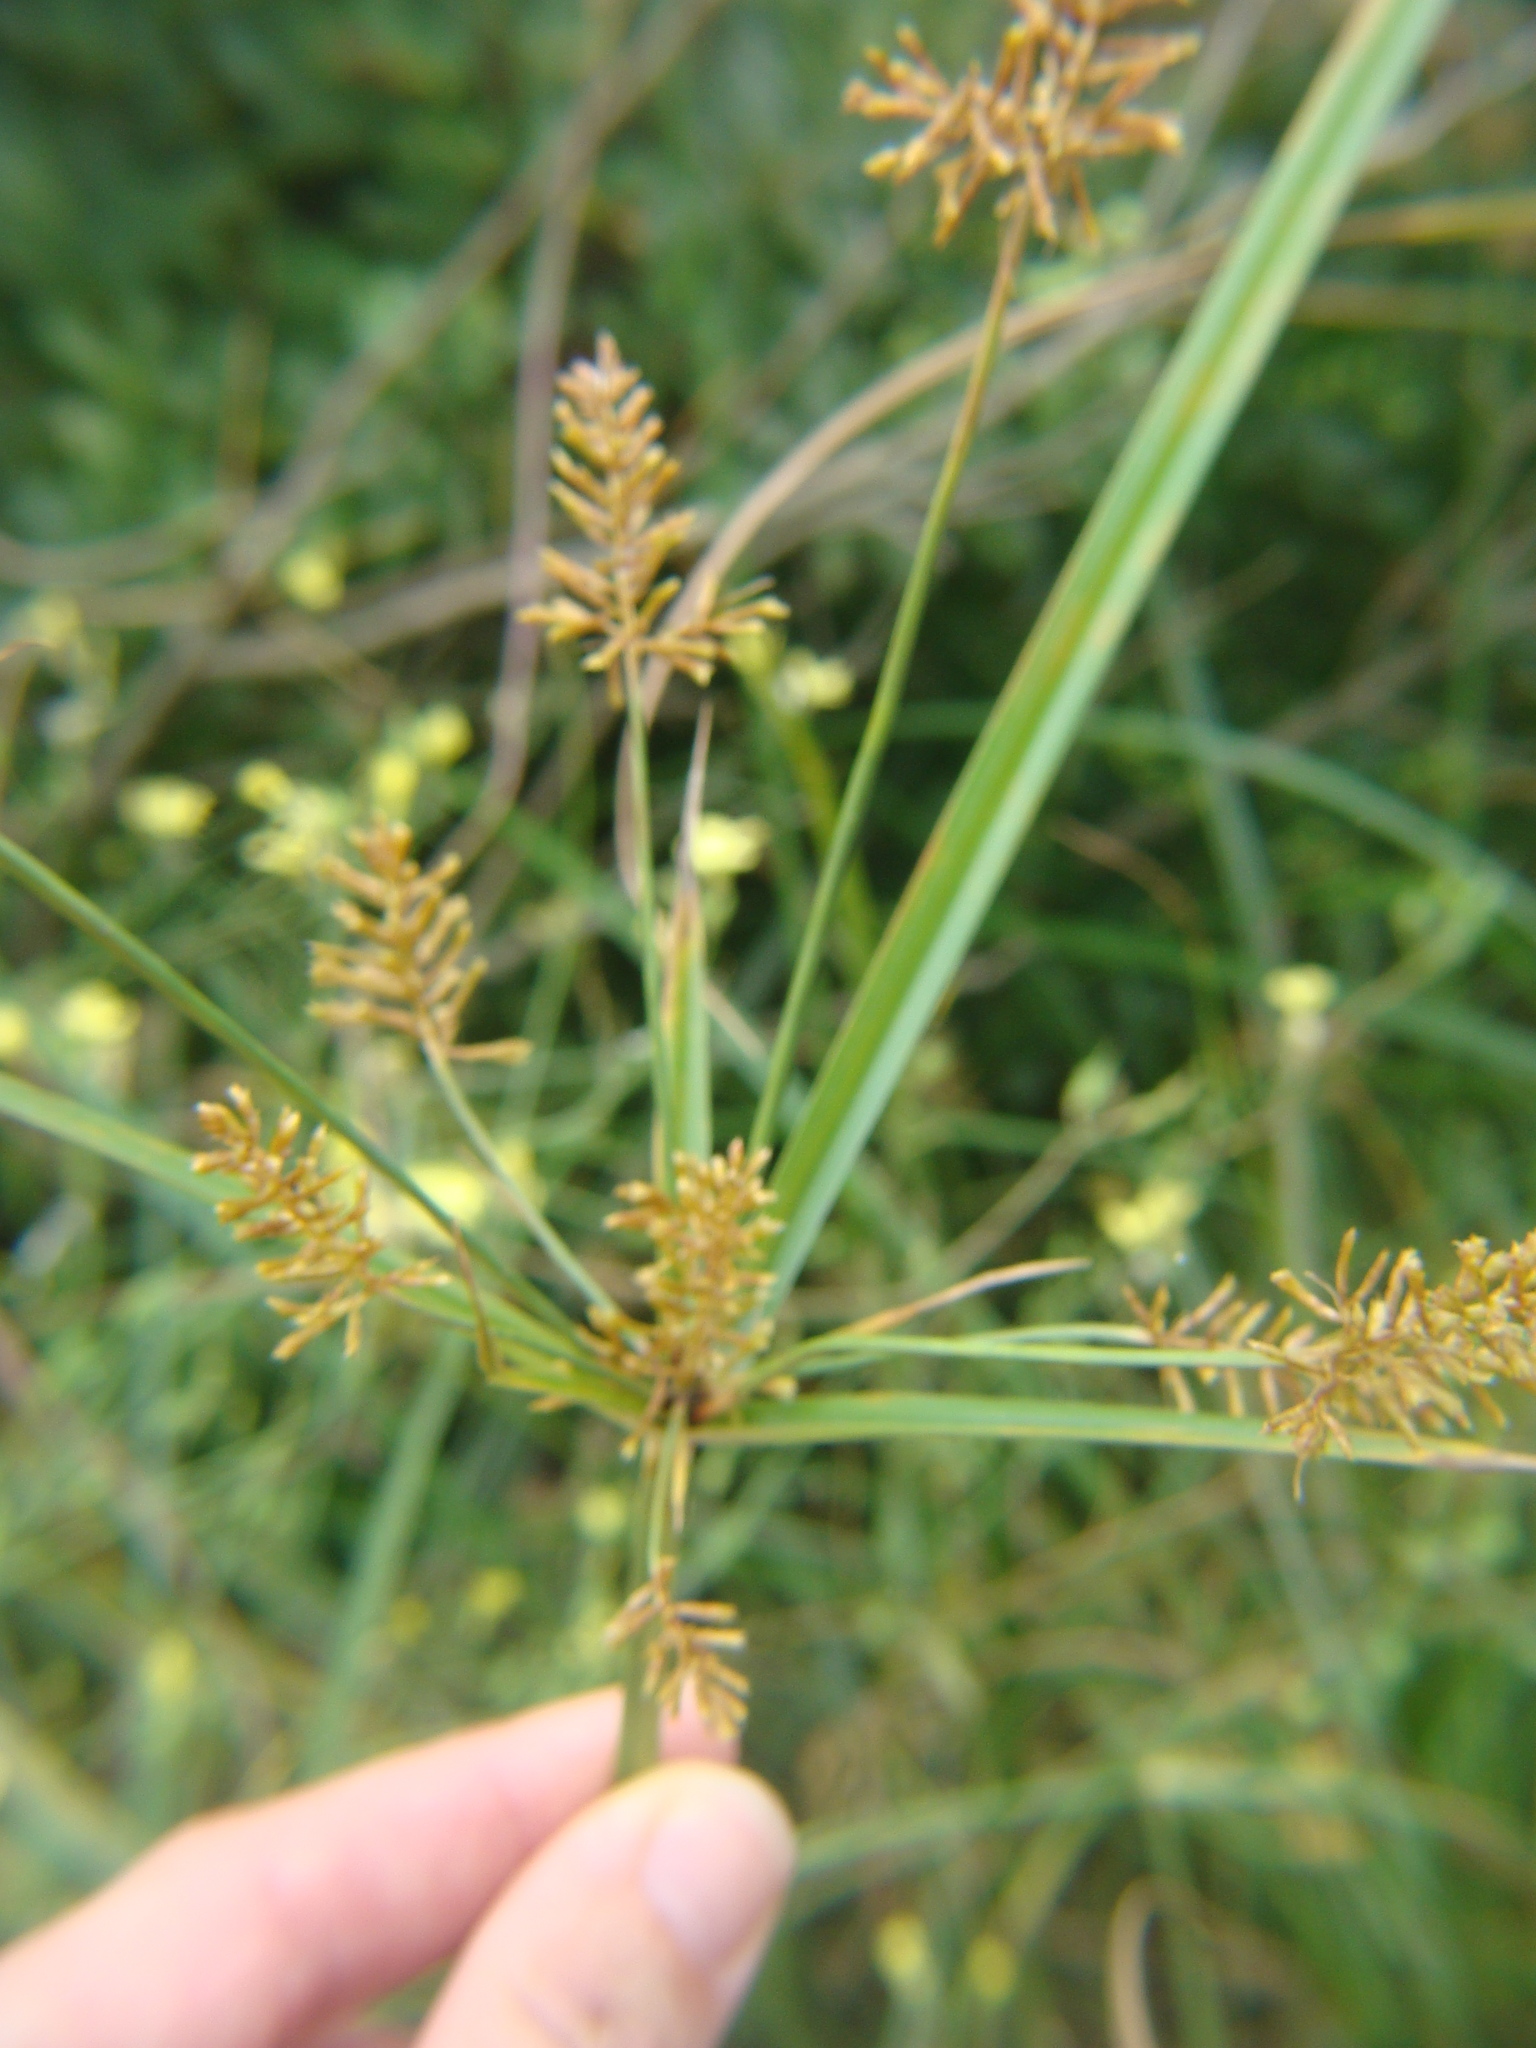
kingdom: Plantae
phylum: Tracheophyta
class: Liliopsida
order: Poales
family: Cyperaceae
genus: Cyperus
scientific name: Cyperus esculentus
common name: Yellow nutsedge
